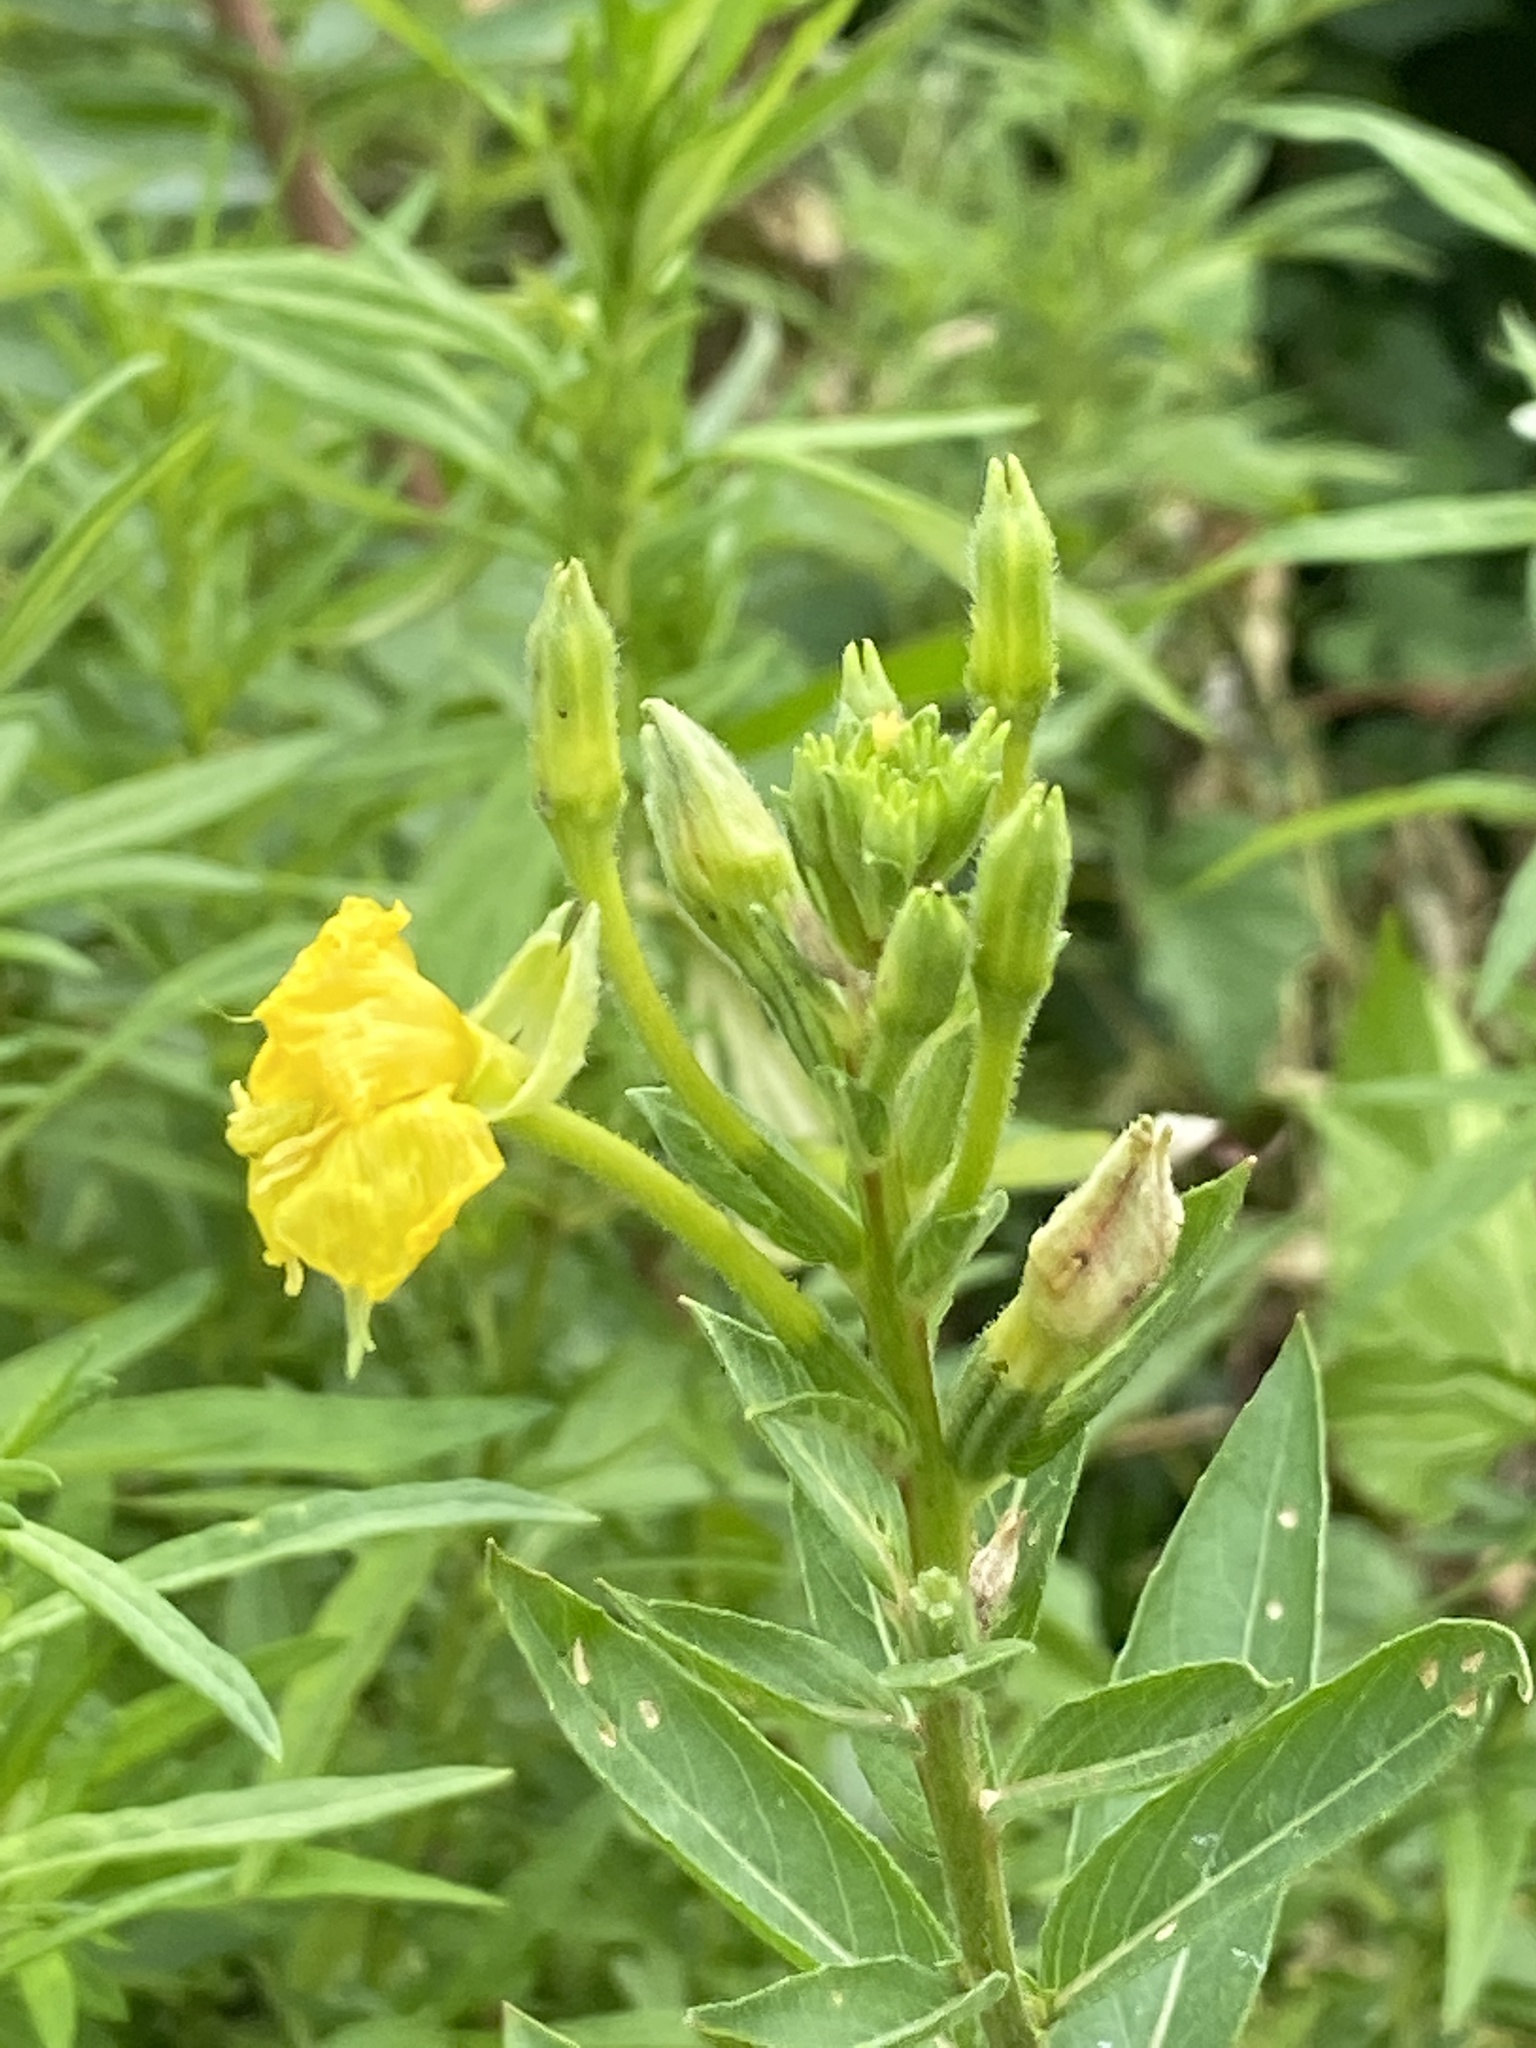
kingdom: Plantae
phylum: Tracheophyta
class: Magnoliopsida
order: Myrtales
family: Onagraceae
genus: Oenothera
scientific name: Oenothera biennis
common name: Common evening-primrose
